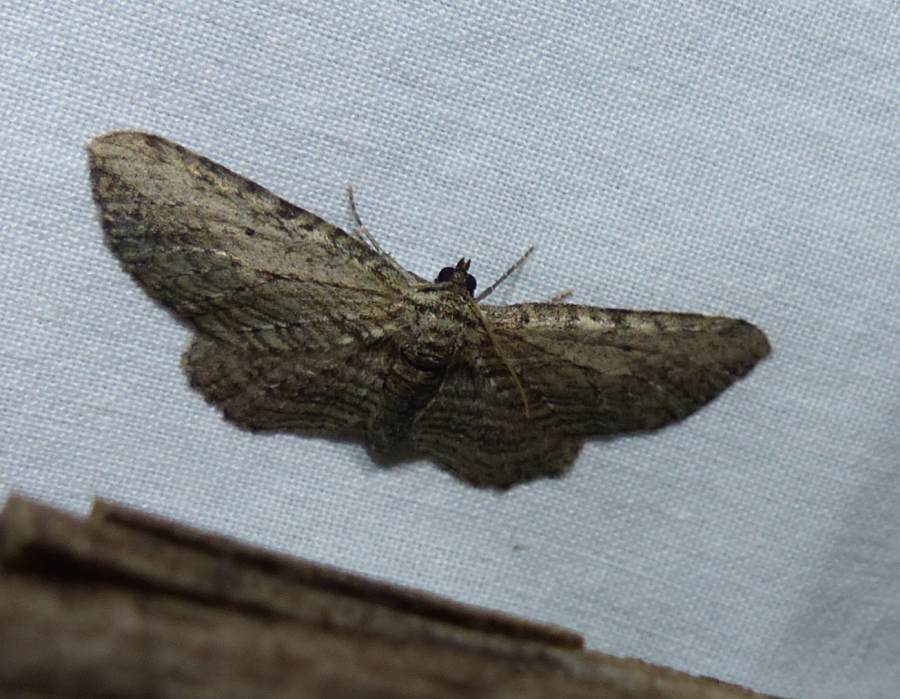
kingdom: Animalia
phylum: Arthropoda
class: Insecta
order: Lepidoptera
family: Geometridae
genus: Horisme
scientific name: Horisme intestinata
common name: Brown bark carpet
